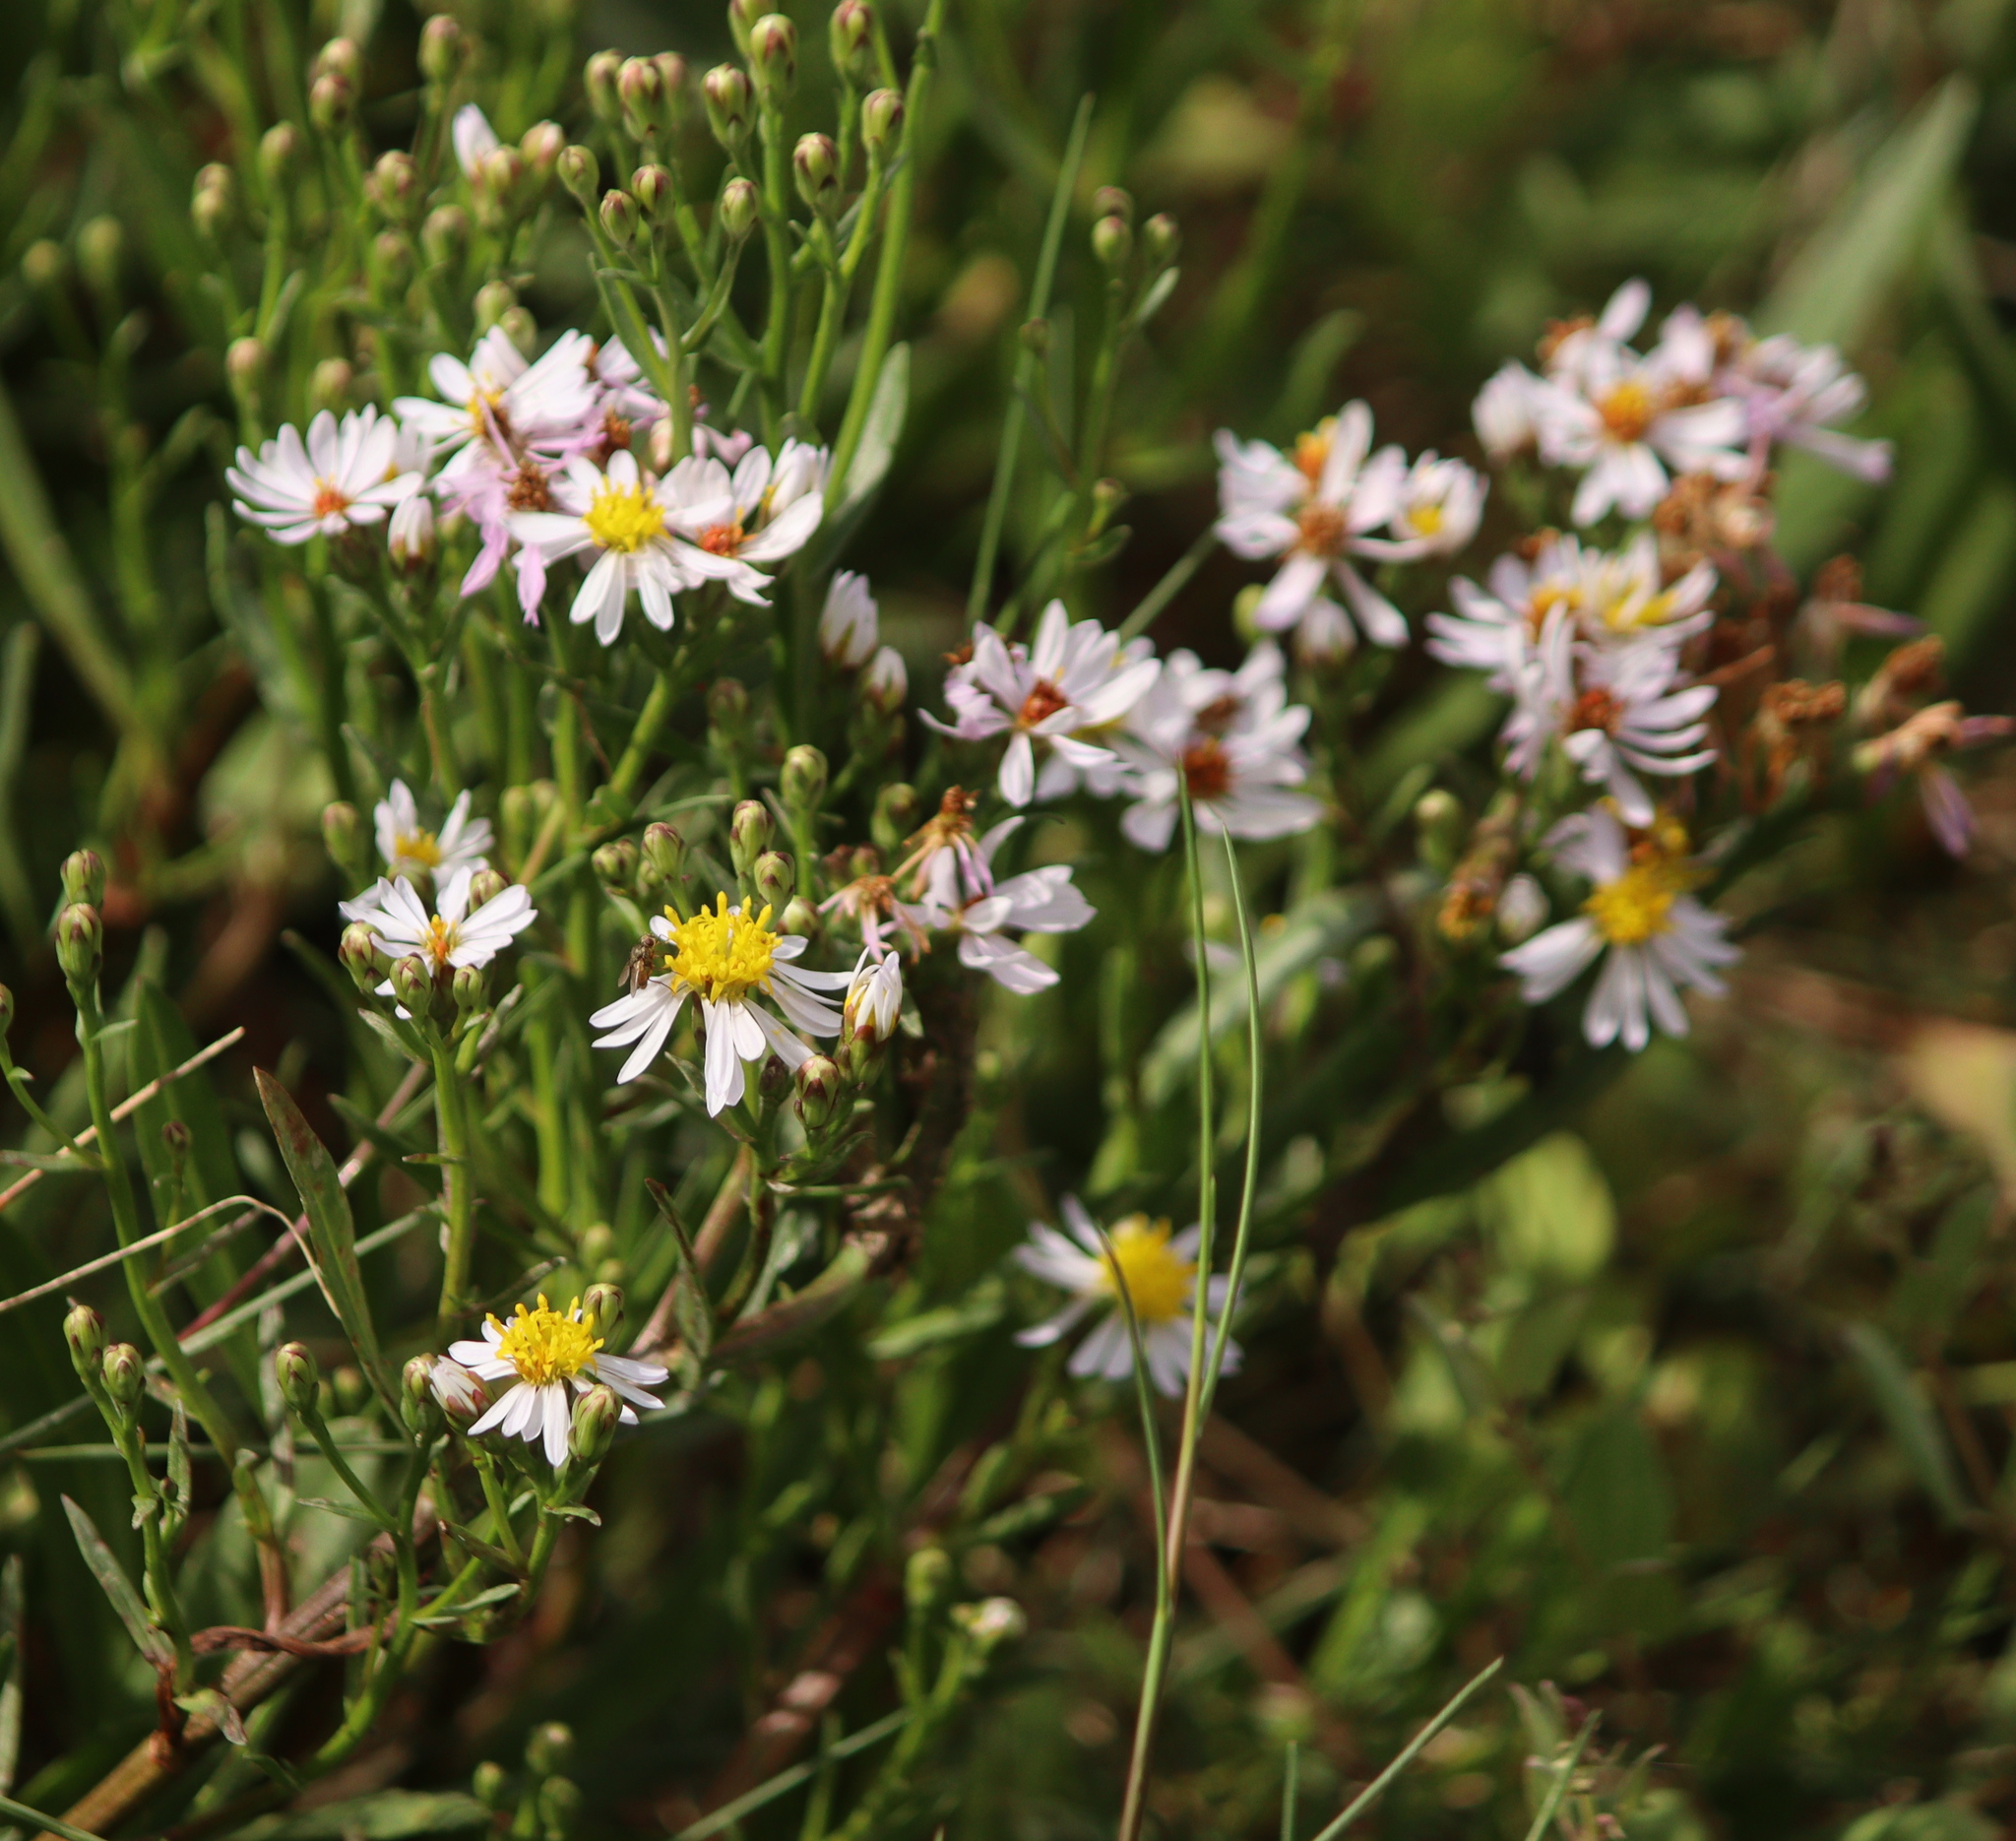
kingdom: Plantae
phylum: Tracheophyta
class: Magnoliopsida
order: Asterales
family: Asteraceae
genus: Tripolium
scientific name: Tripolium pannonicum
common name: Sea aster
